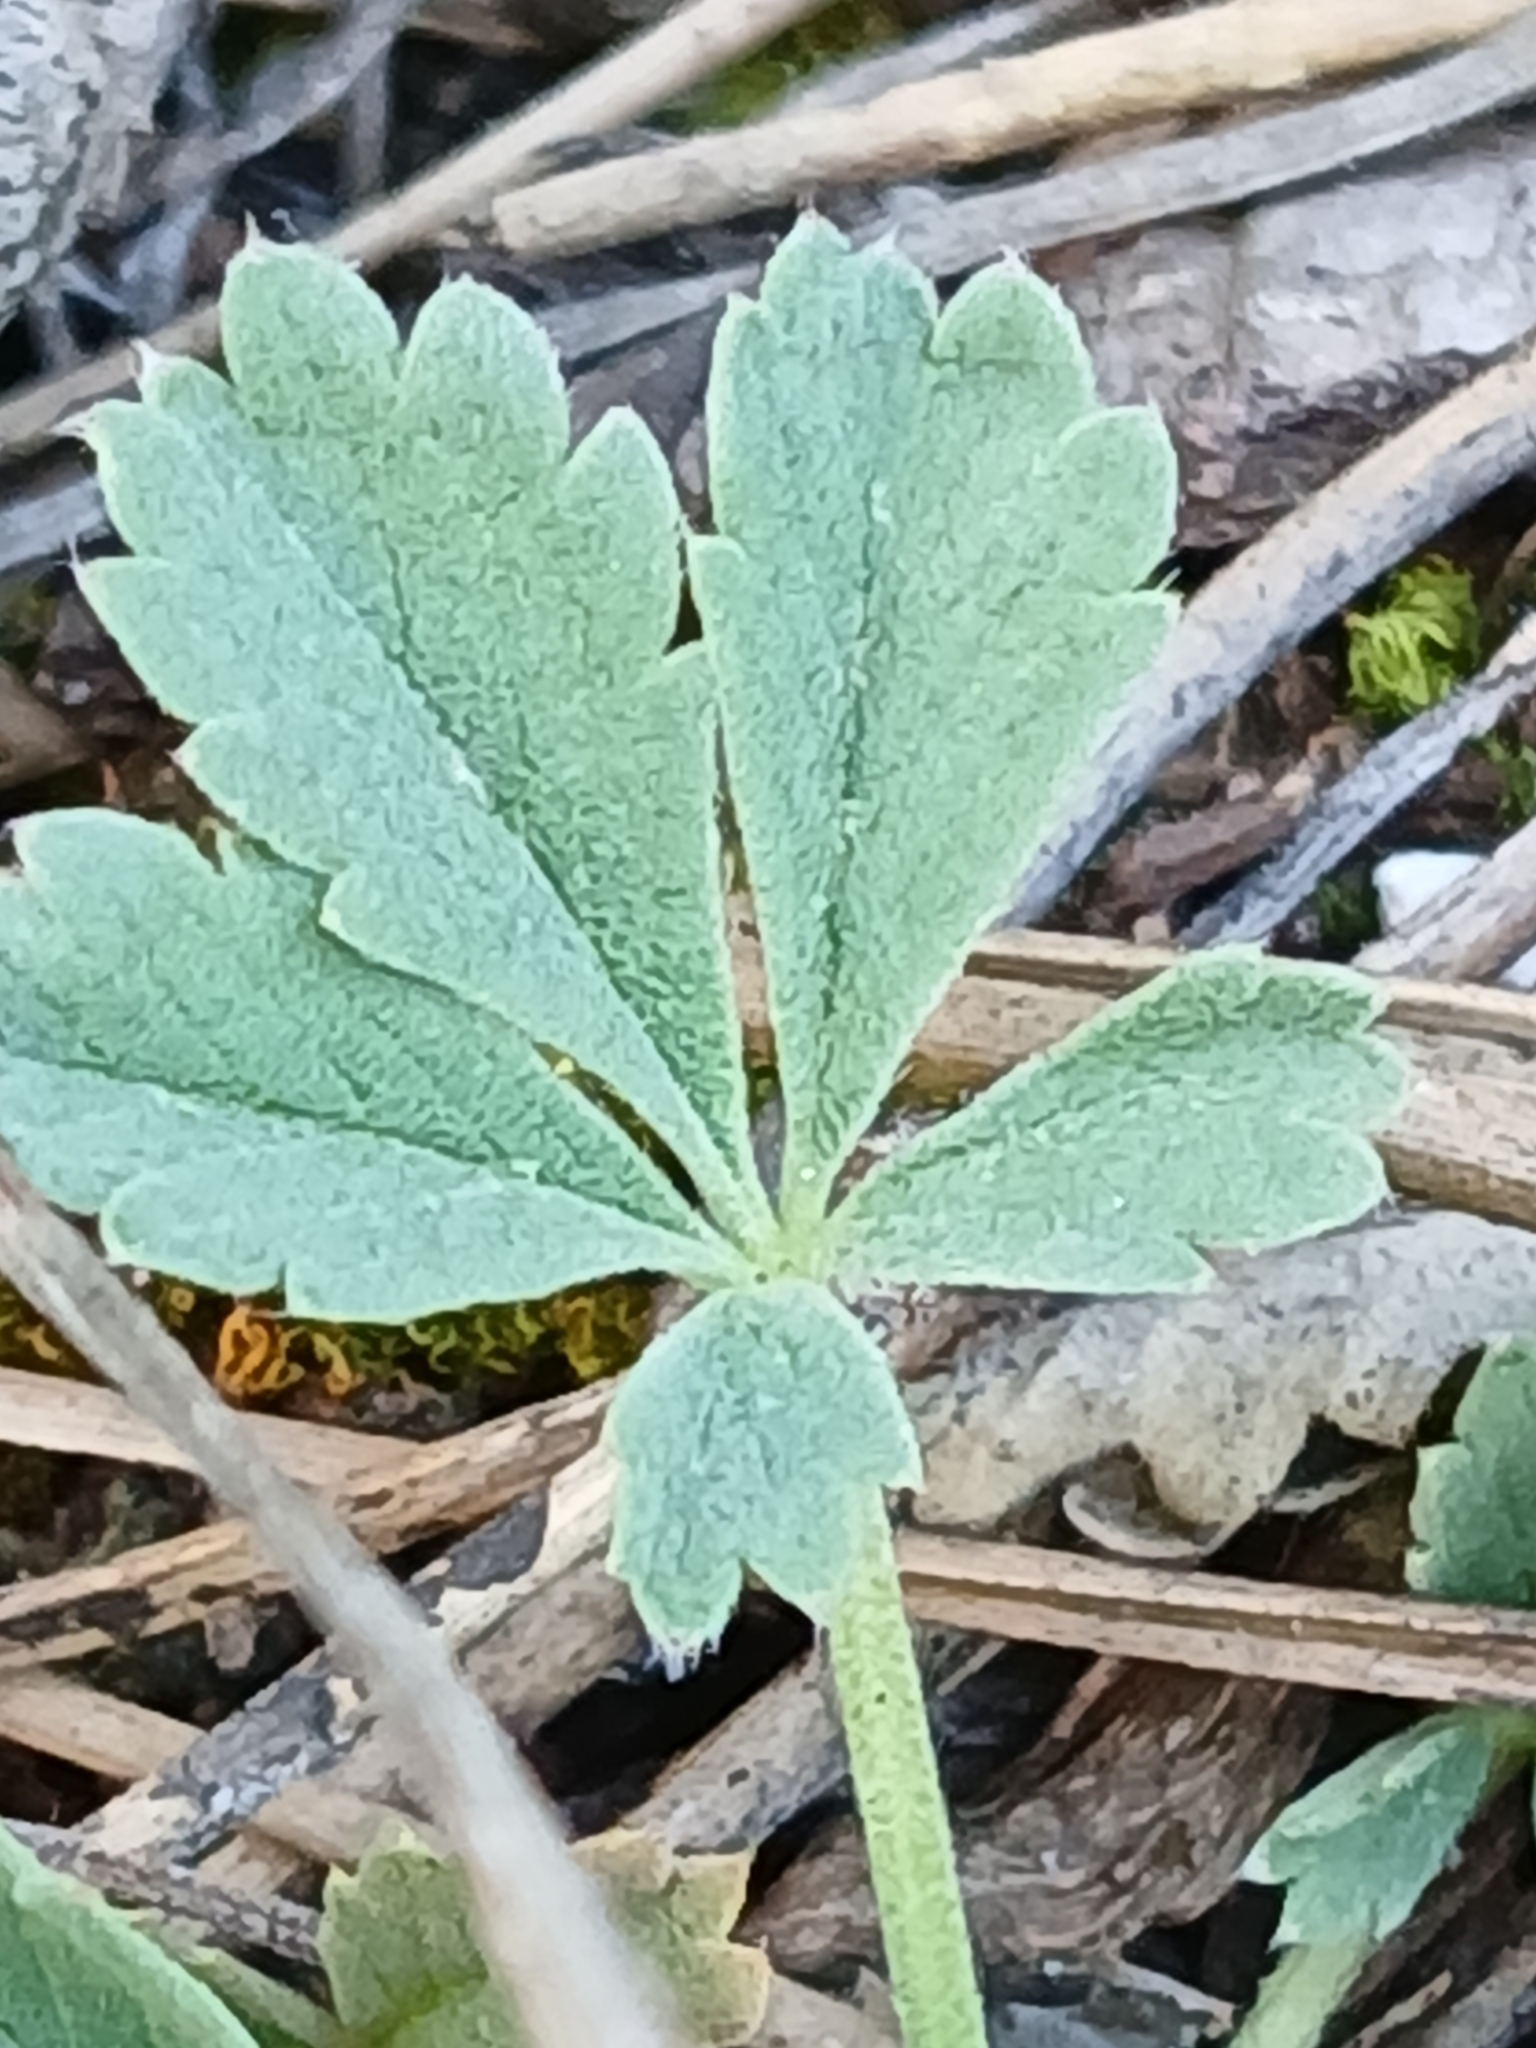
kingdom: Plantae
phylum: Tracheophyta
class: Magnoliopsida
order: Rosales
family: Rosaceae
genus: Potentilla
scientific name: Potentilla incana
